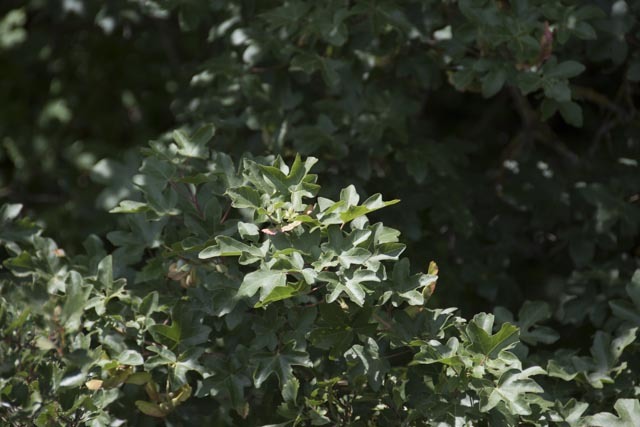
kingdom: Plantae
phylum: Tracheophyta
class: Magnoliopsida
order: Sapindales
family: Sapindaceae
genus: Acer
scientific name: Acer campestre
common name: Field maple
